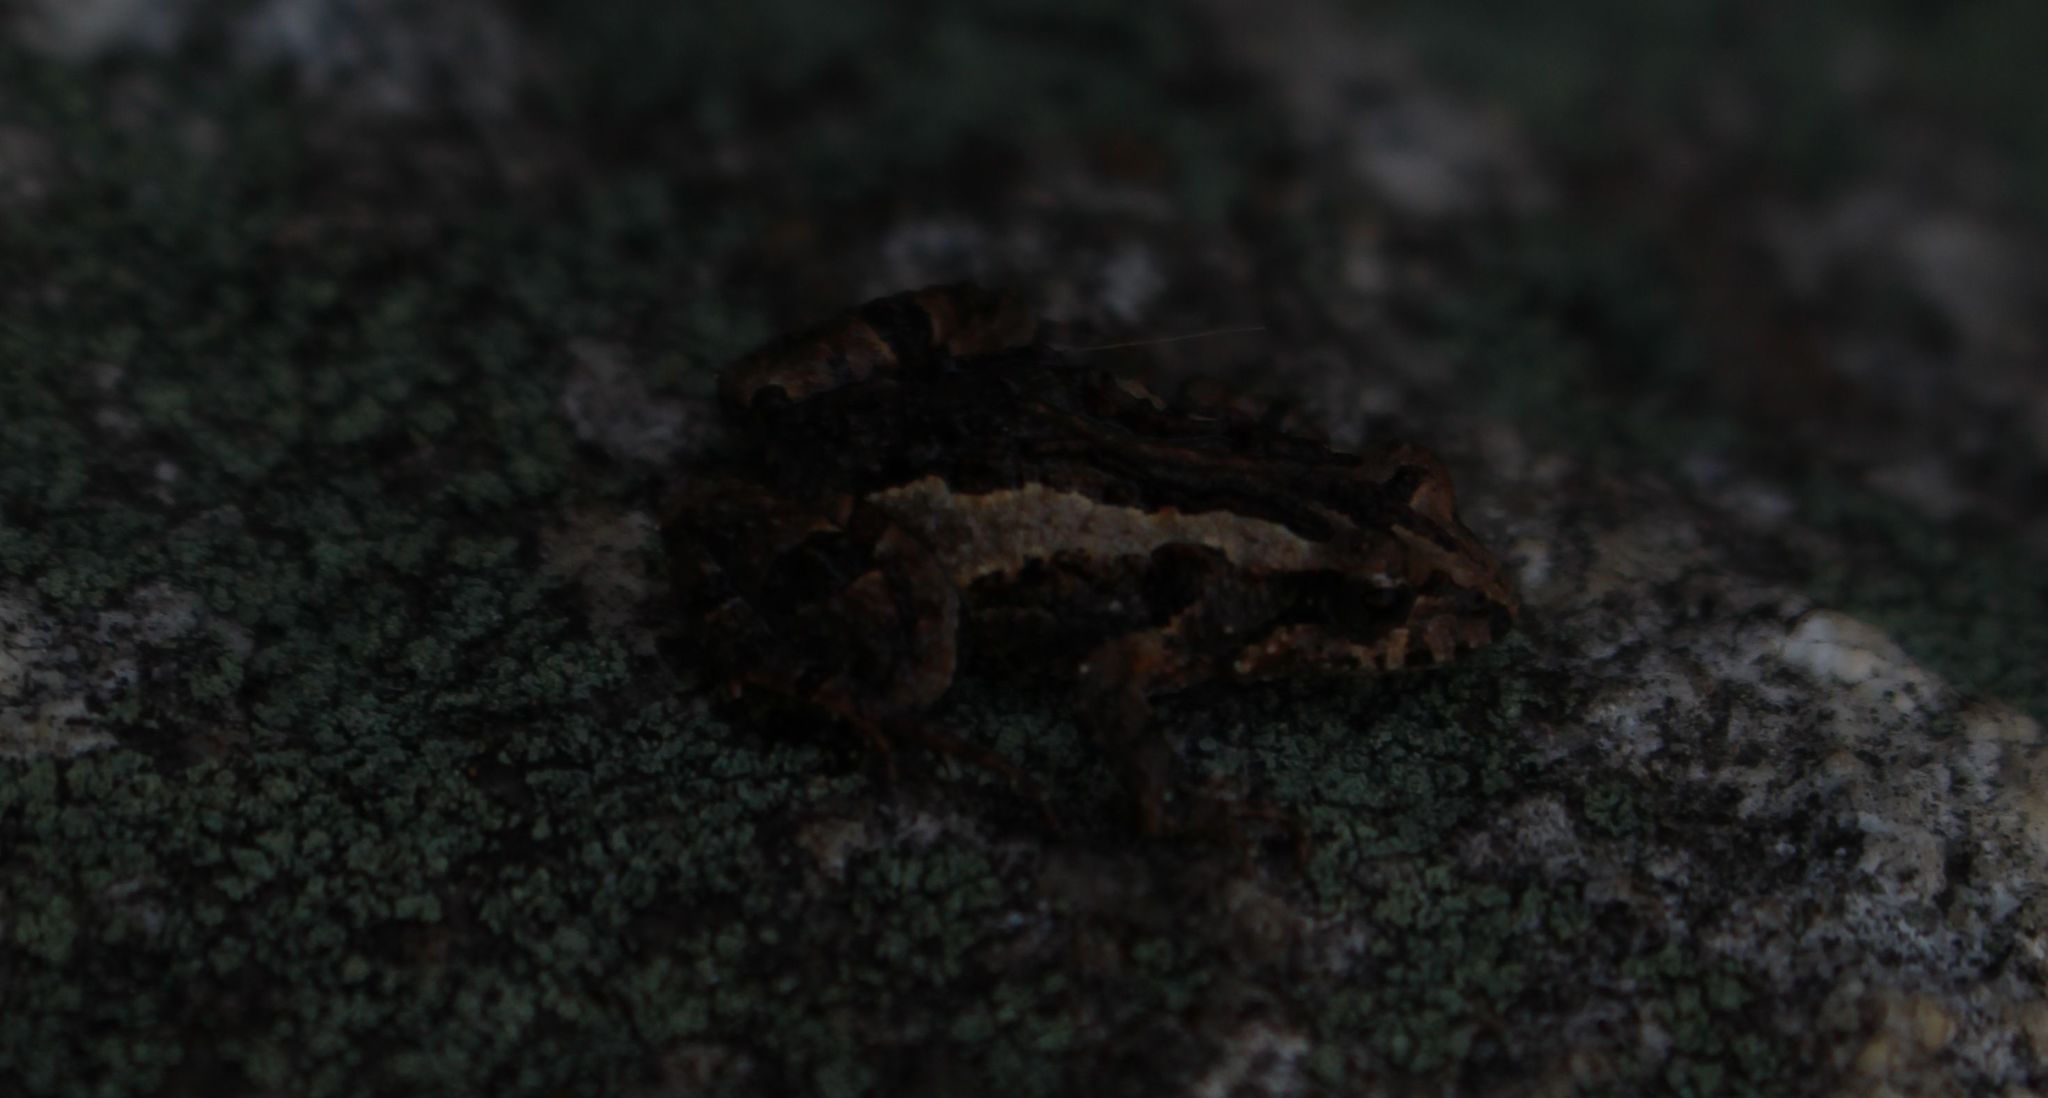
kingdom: Animalia
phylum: Chordata
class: Amphibia
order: Anura
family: Myobatrachidae
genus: Crinia
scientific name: Crinia glauerti
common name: Glauert’s froglet
